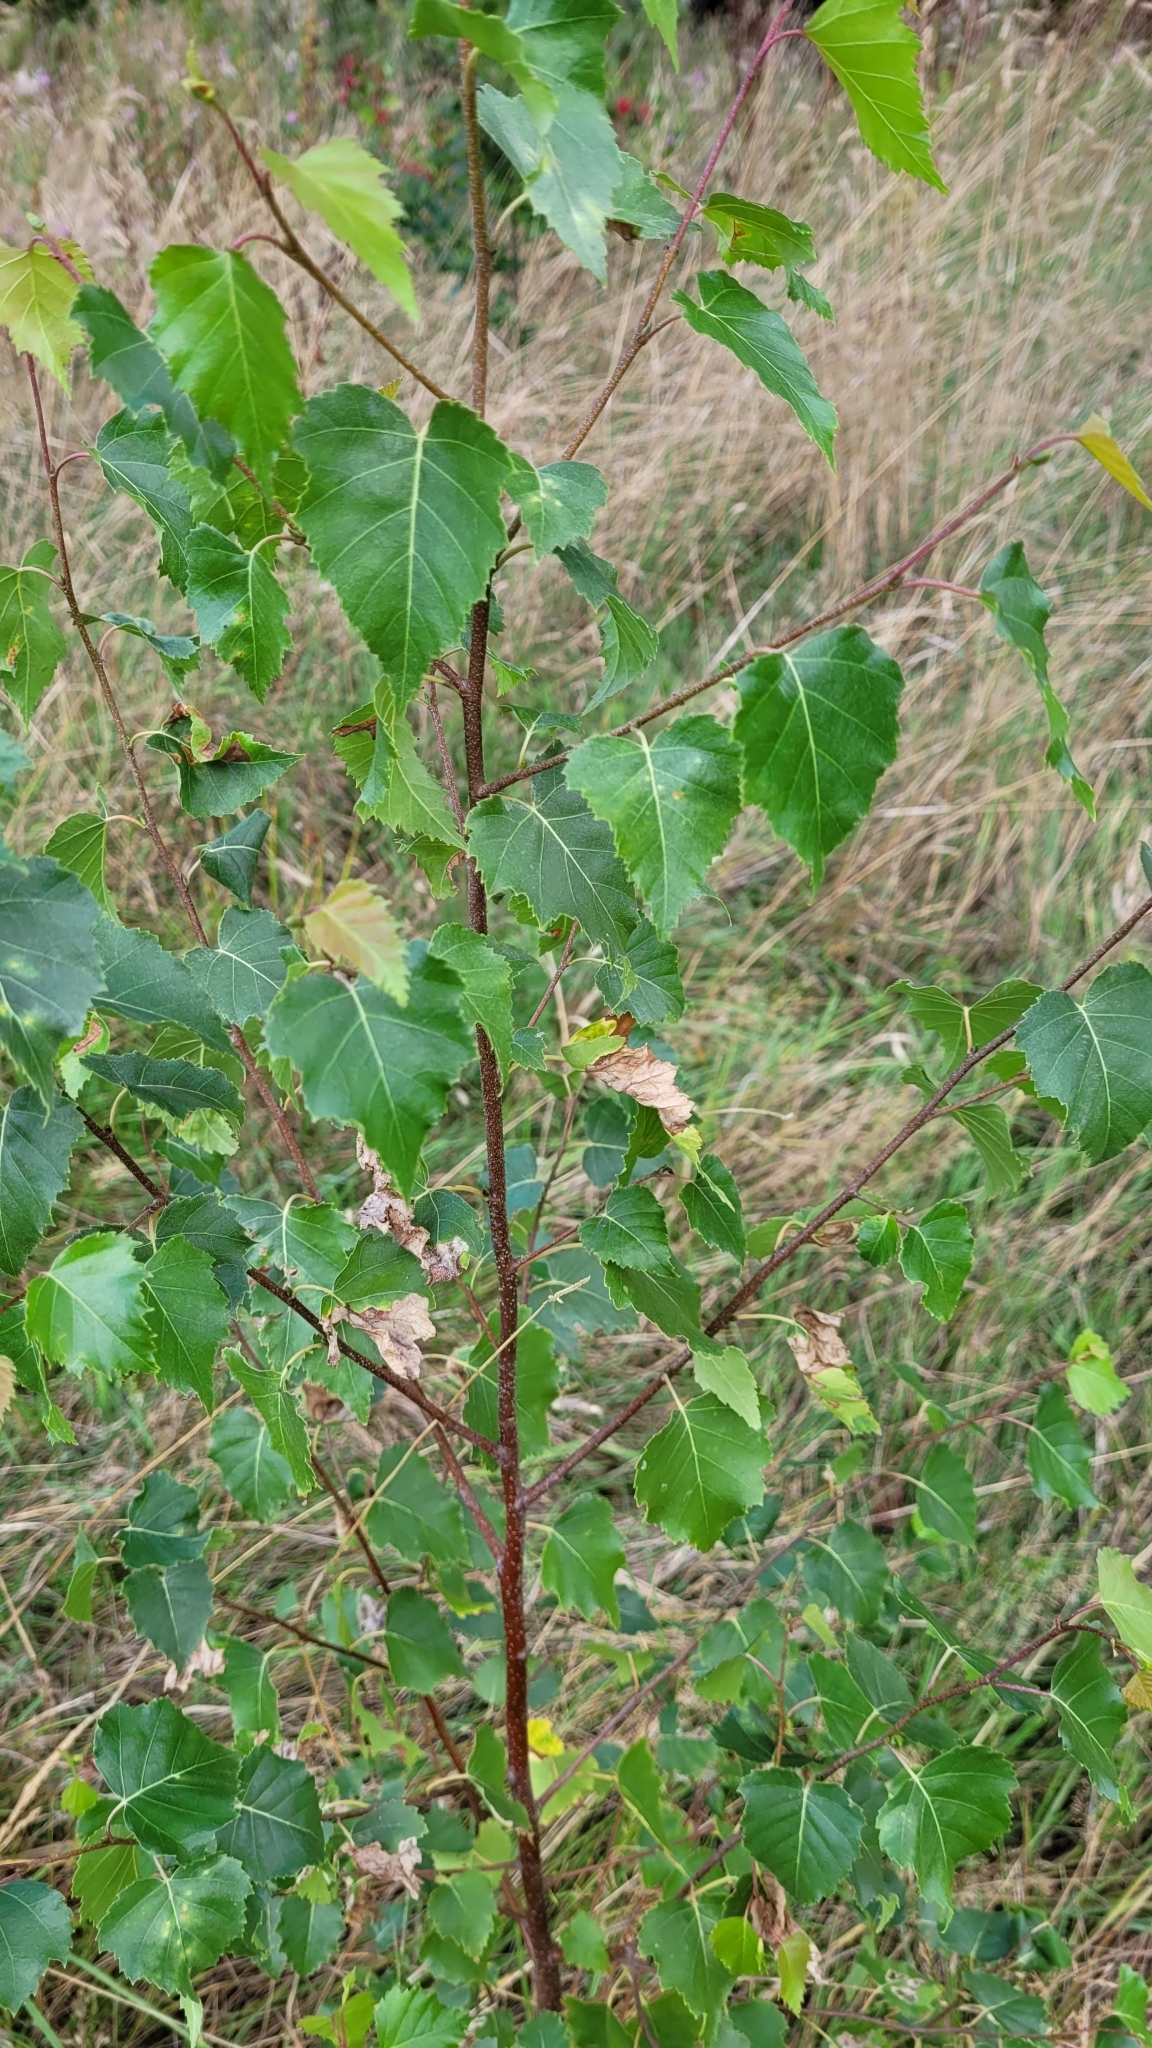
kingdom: Plantae
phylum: Tracheophyta
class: Magnoliopsida
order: Fagales
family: Betulaceae
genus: Betula
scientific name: Betula pendula
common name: Silver birch
